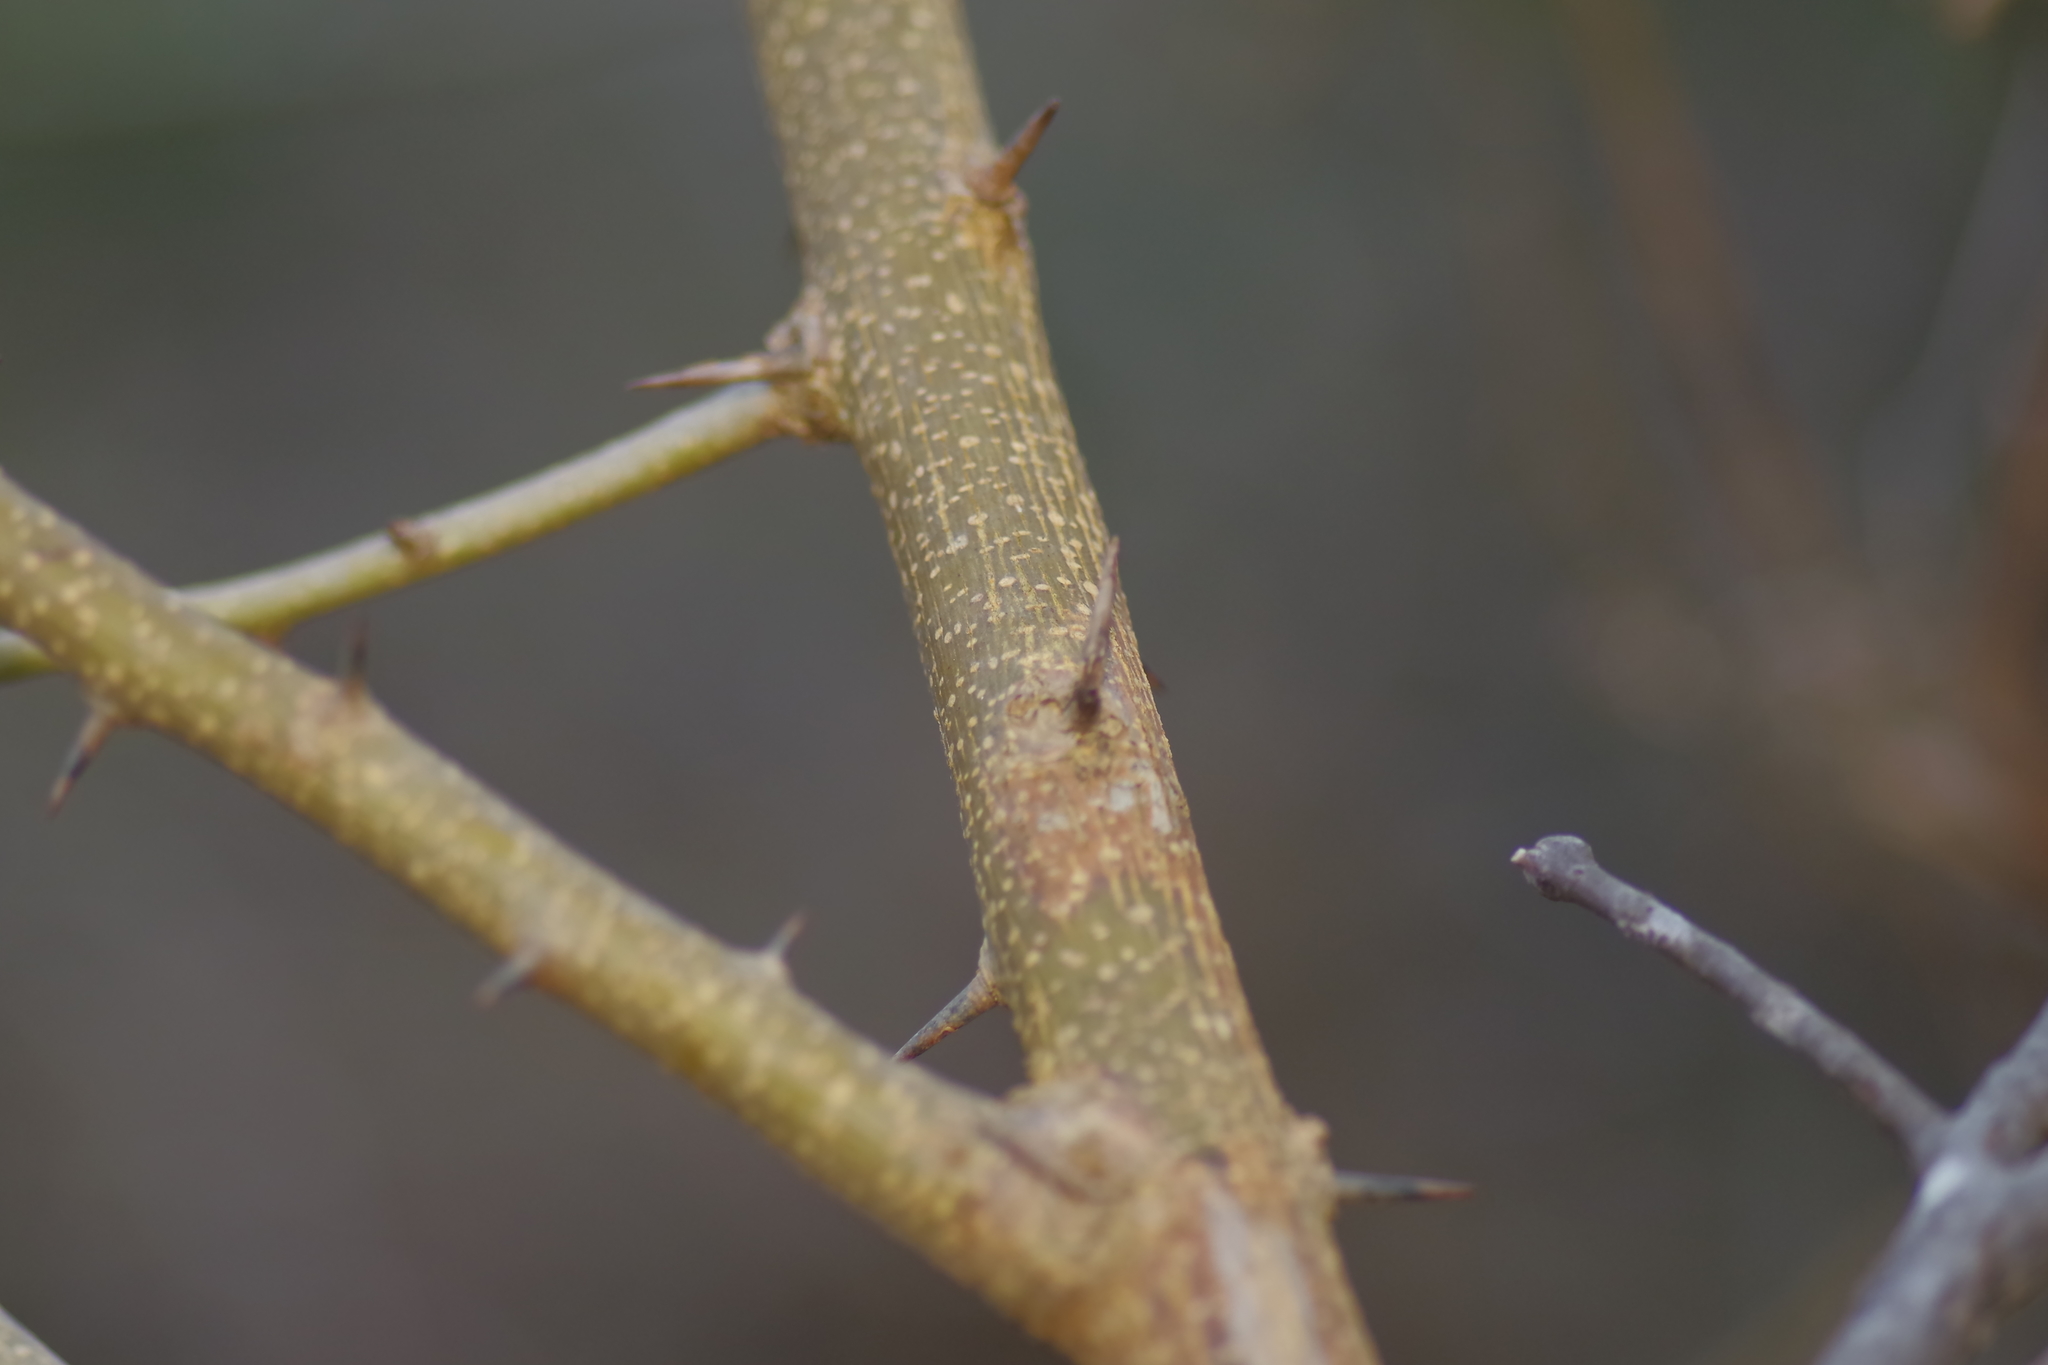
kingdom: Plantae
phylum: Tracheophyta
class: Magnoliopsida
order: Rosales
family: Moraceae
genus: Maclura
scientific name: Maclura pomifera
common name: Osage-orange
